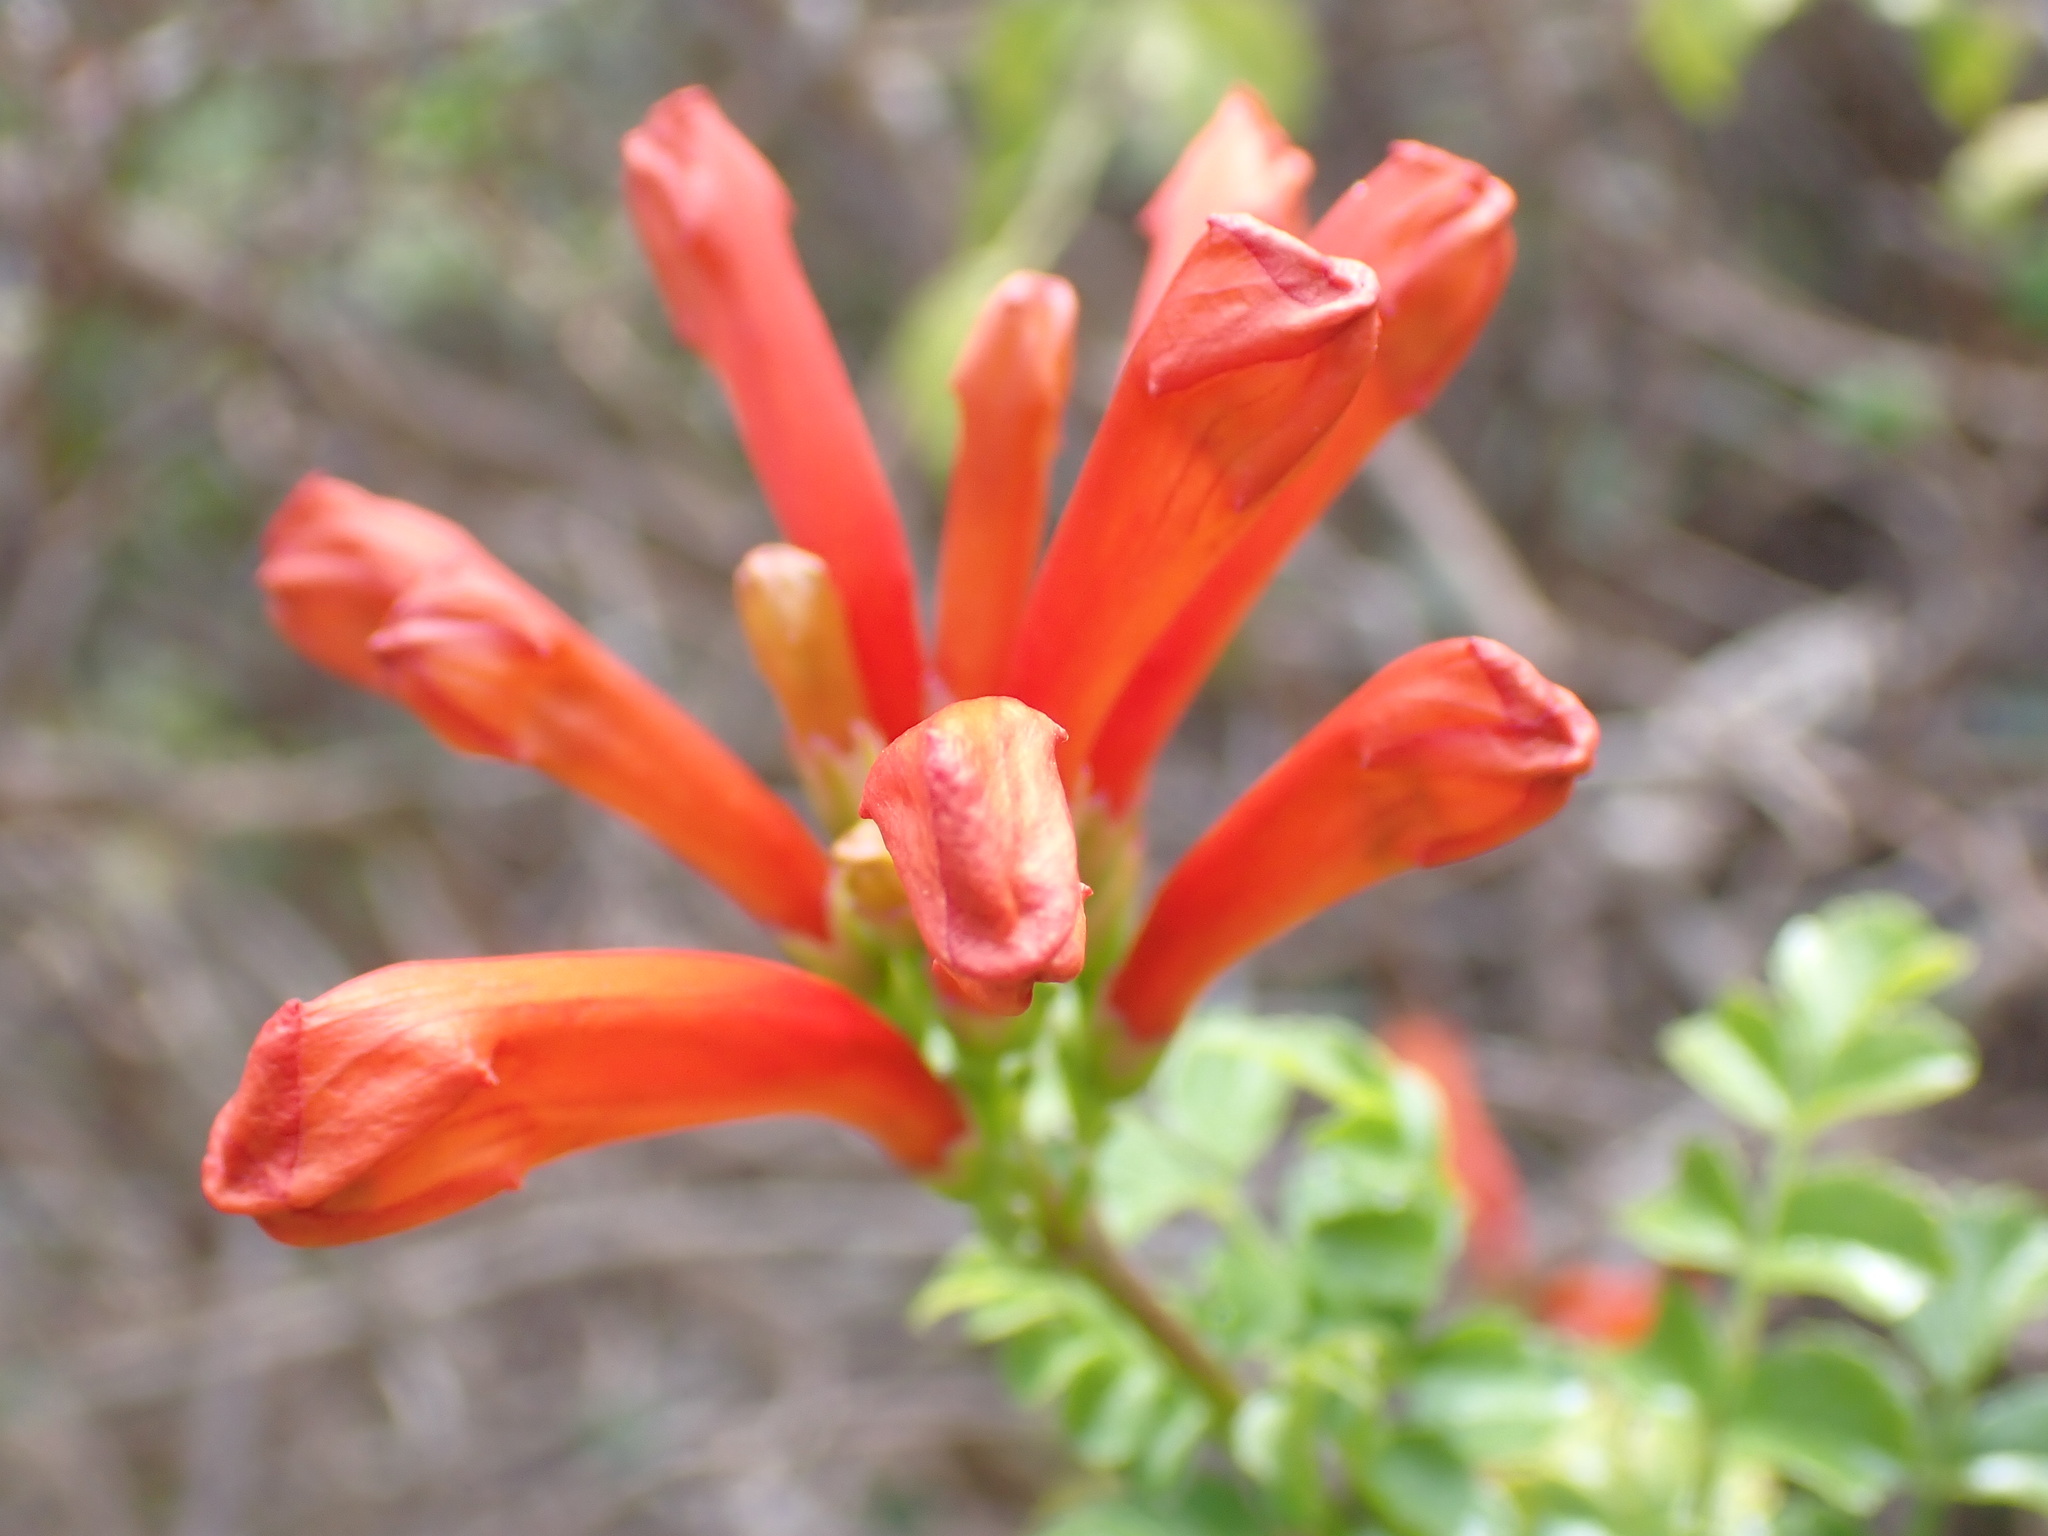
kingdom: Plantae
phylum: Tracheophyta
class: Magnoliopsida
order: Lamiales
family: Bignoniaceae
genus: Tecomaria
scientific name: Tecomaria capensis
